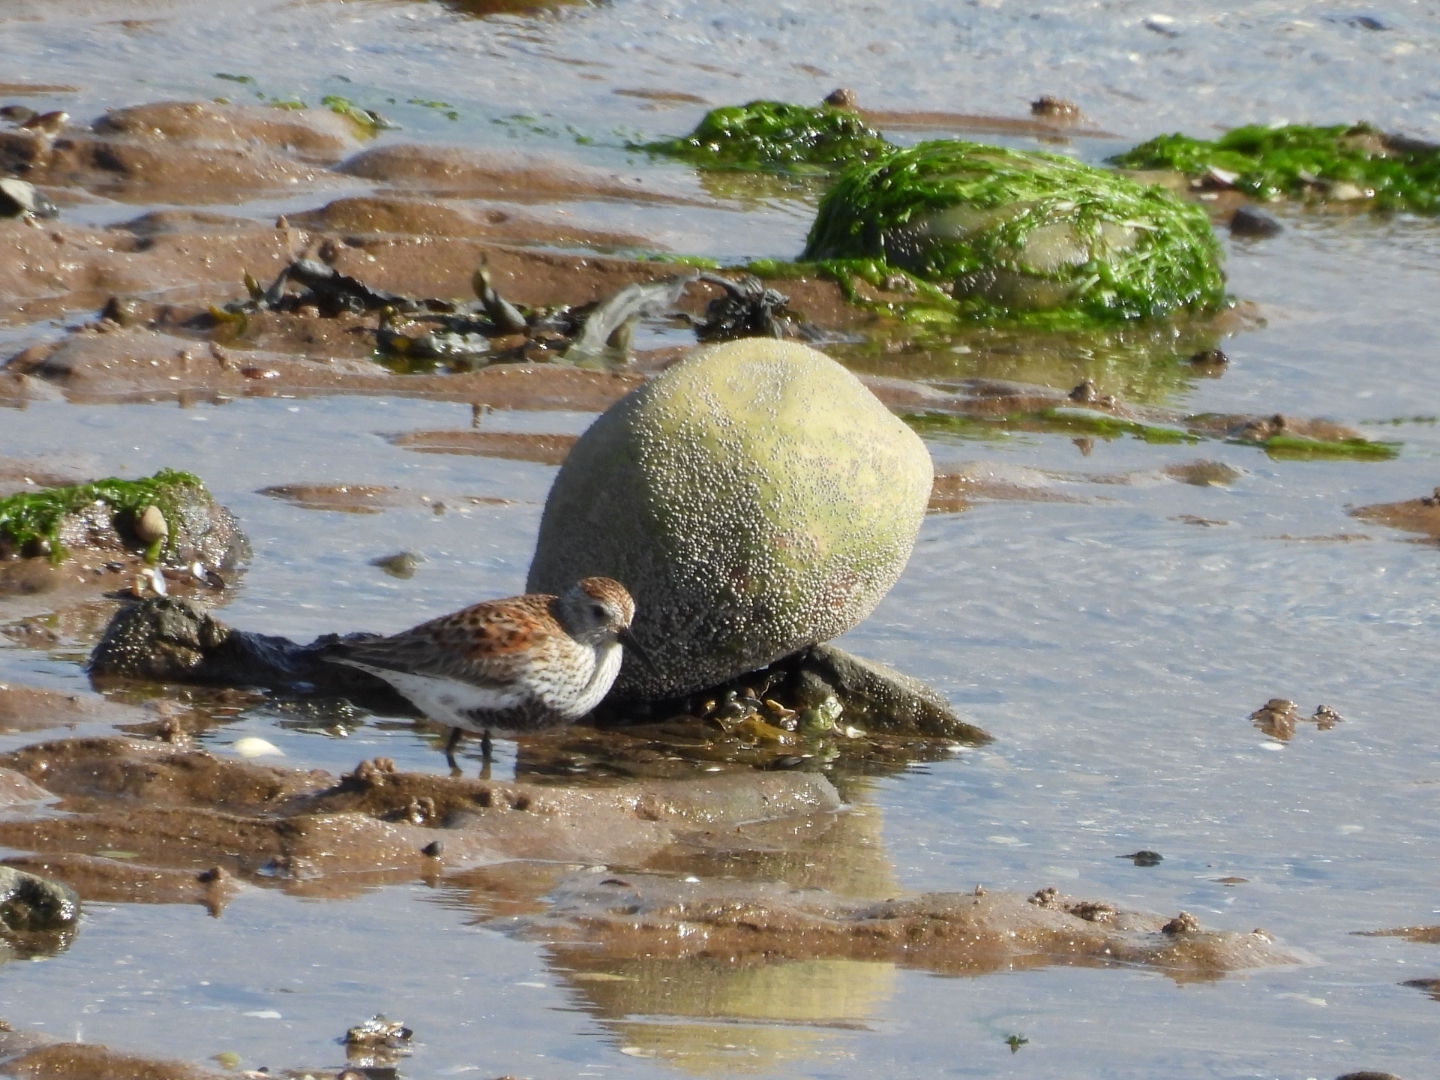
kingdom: Animalia
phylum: Chordata
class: Aves
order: Charadriiformes
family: Scolopacidae
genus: Calidris
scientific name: Calidris alpina
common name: Dunlin
